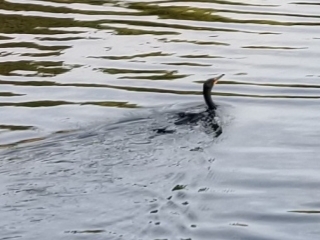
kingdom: Animalia
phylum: Chordata
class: Aves
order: Suliformes
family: Phalacrocoracidae
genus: Phalacrocorax
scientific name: Phalacrocorax auritus
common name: Double-crested cormorant
